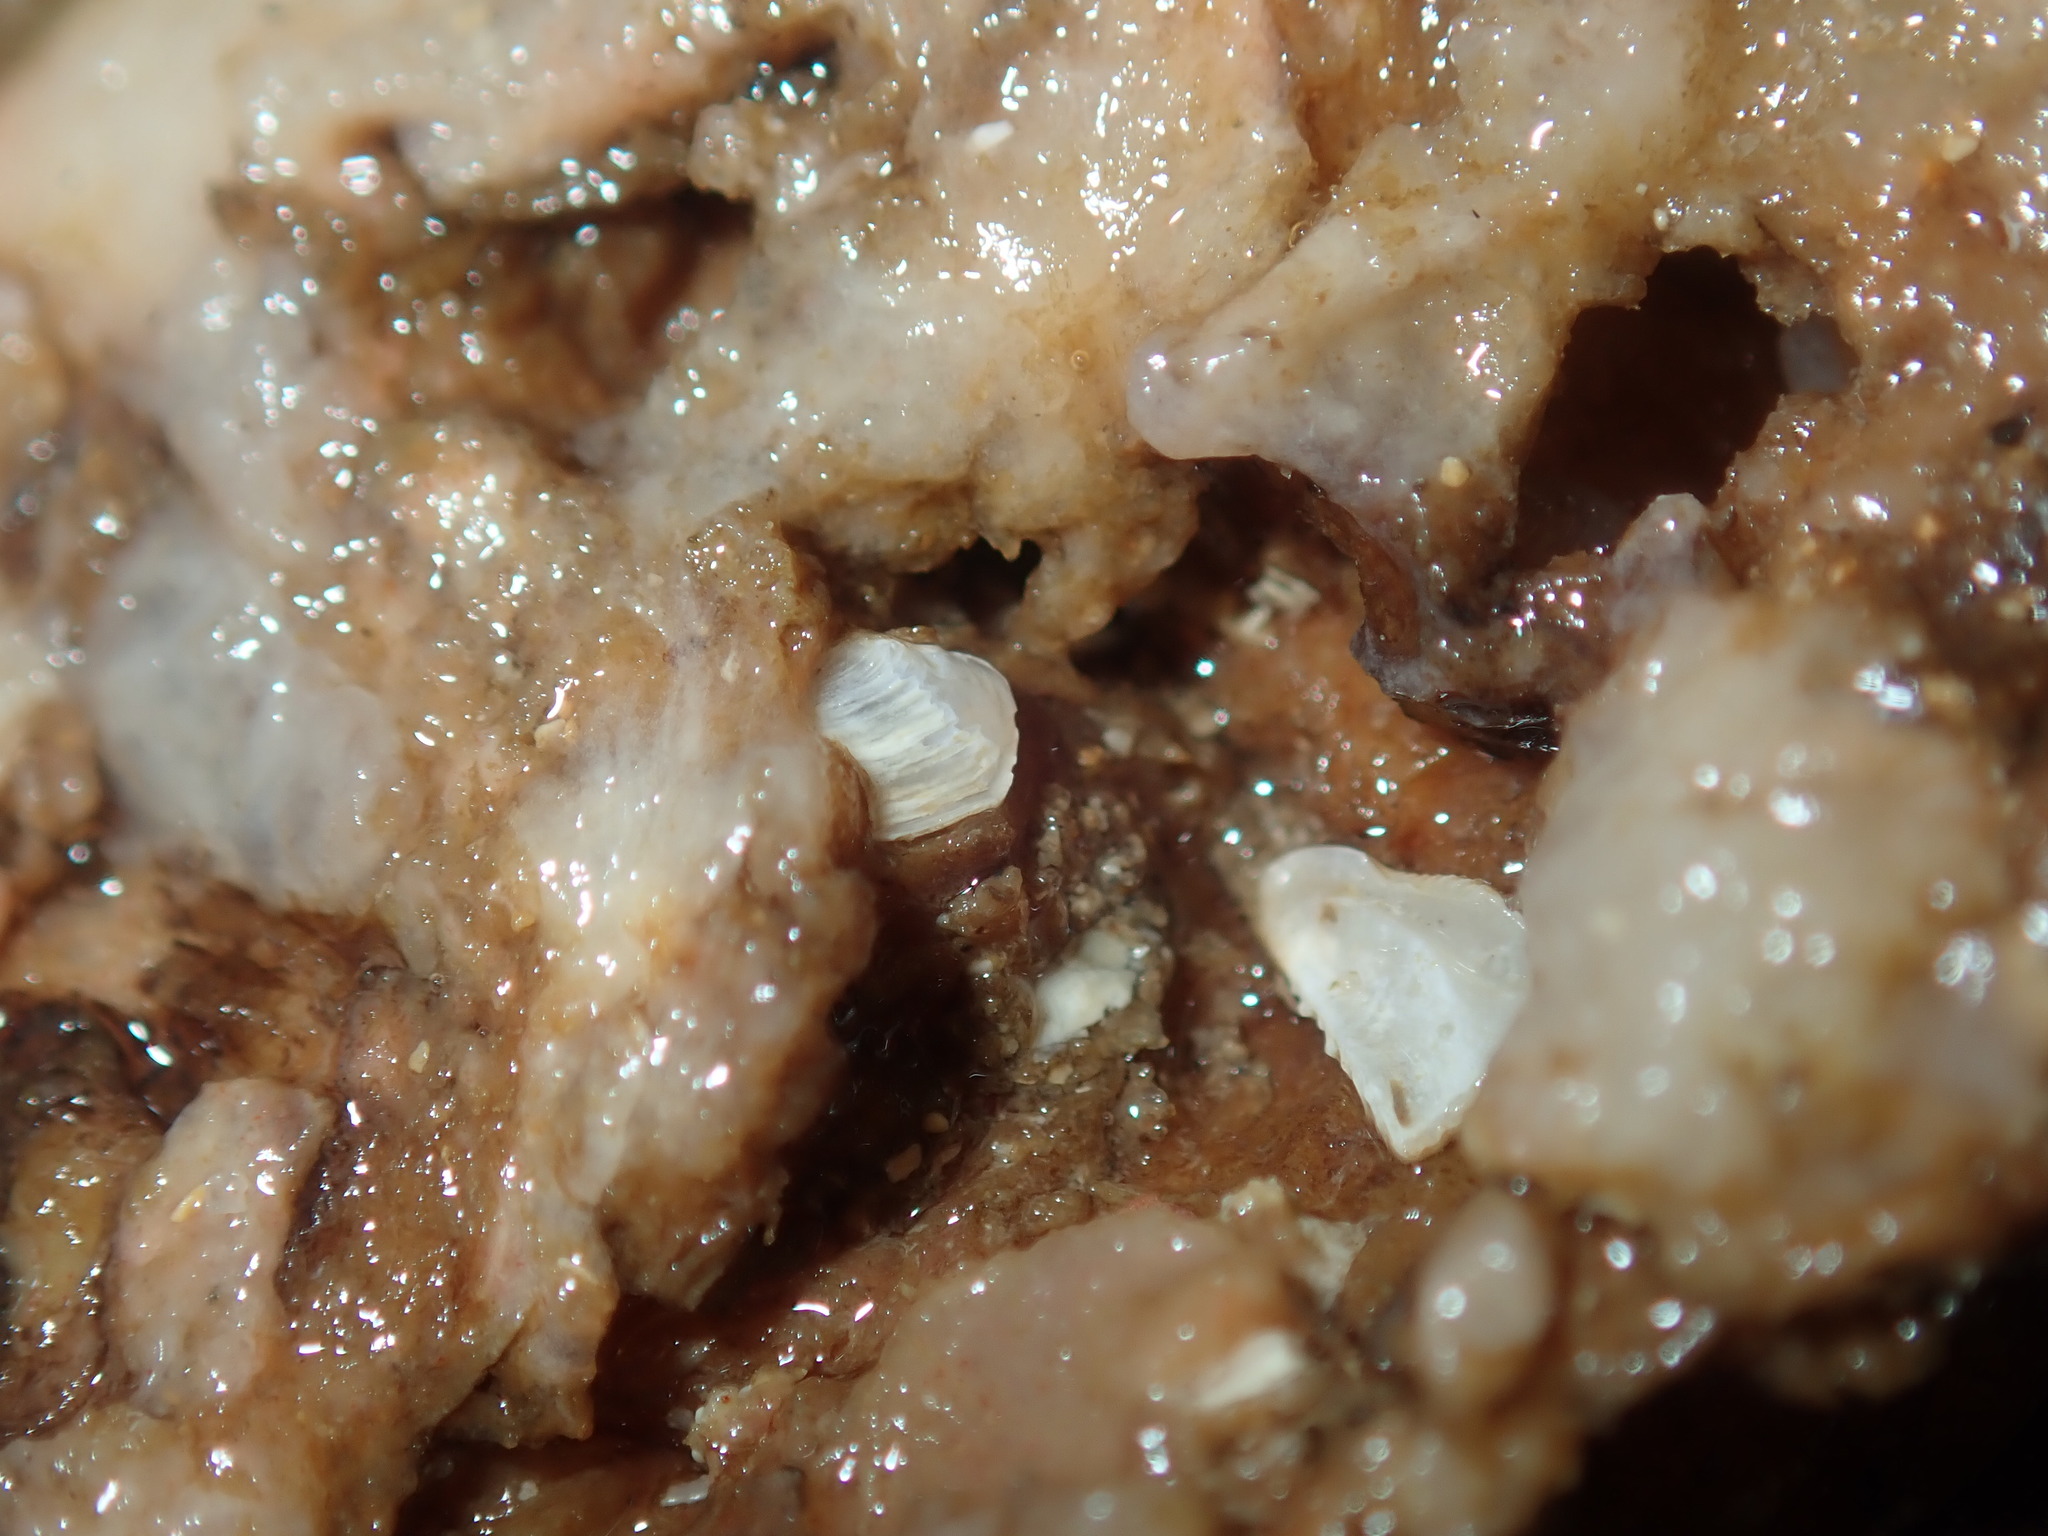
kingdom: Animalia
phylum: Mollusca
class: Bivalvia
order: Adapedonta
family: Hiatellidae
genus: Hiatella
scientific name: Hiatella australis
